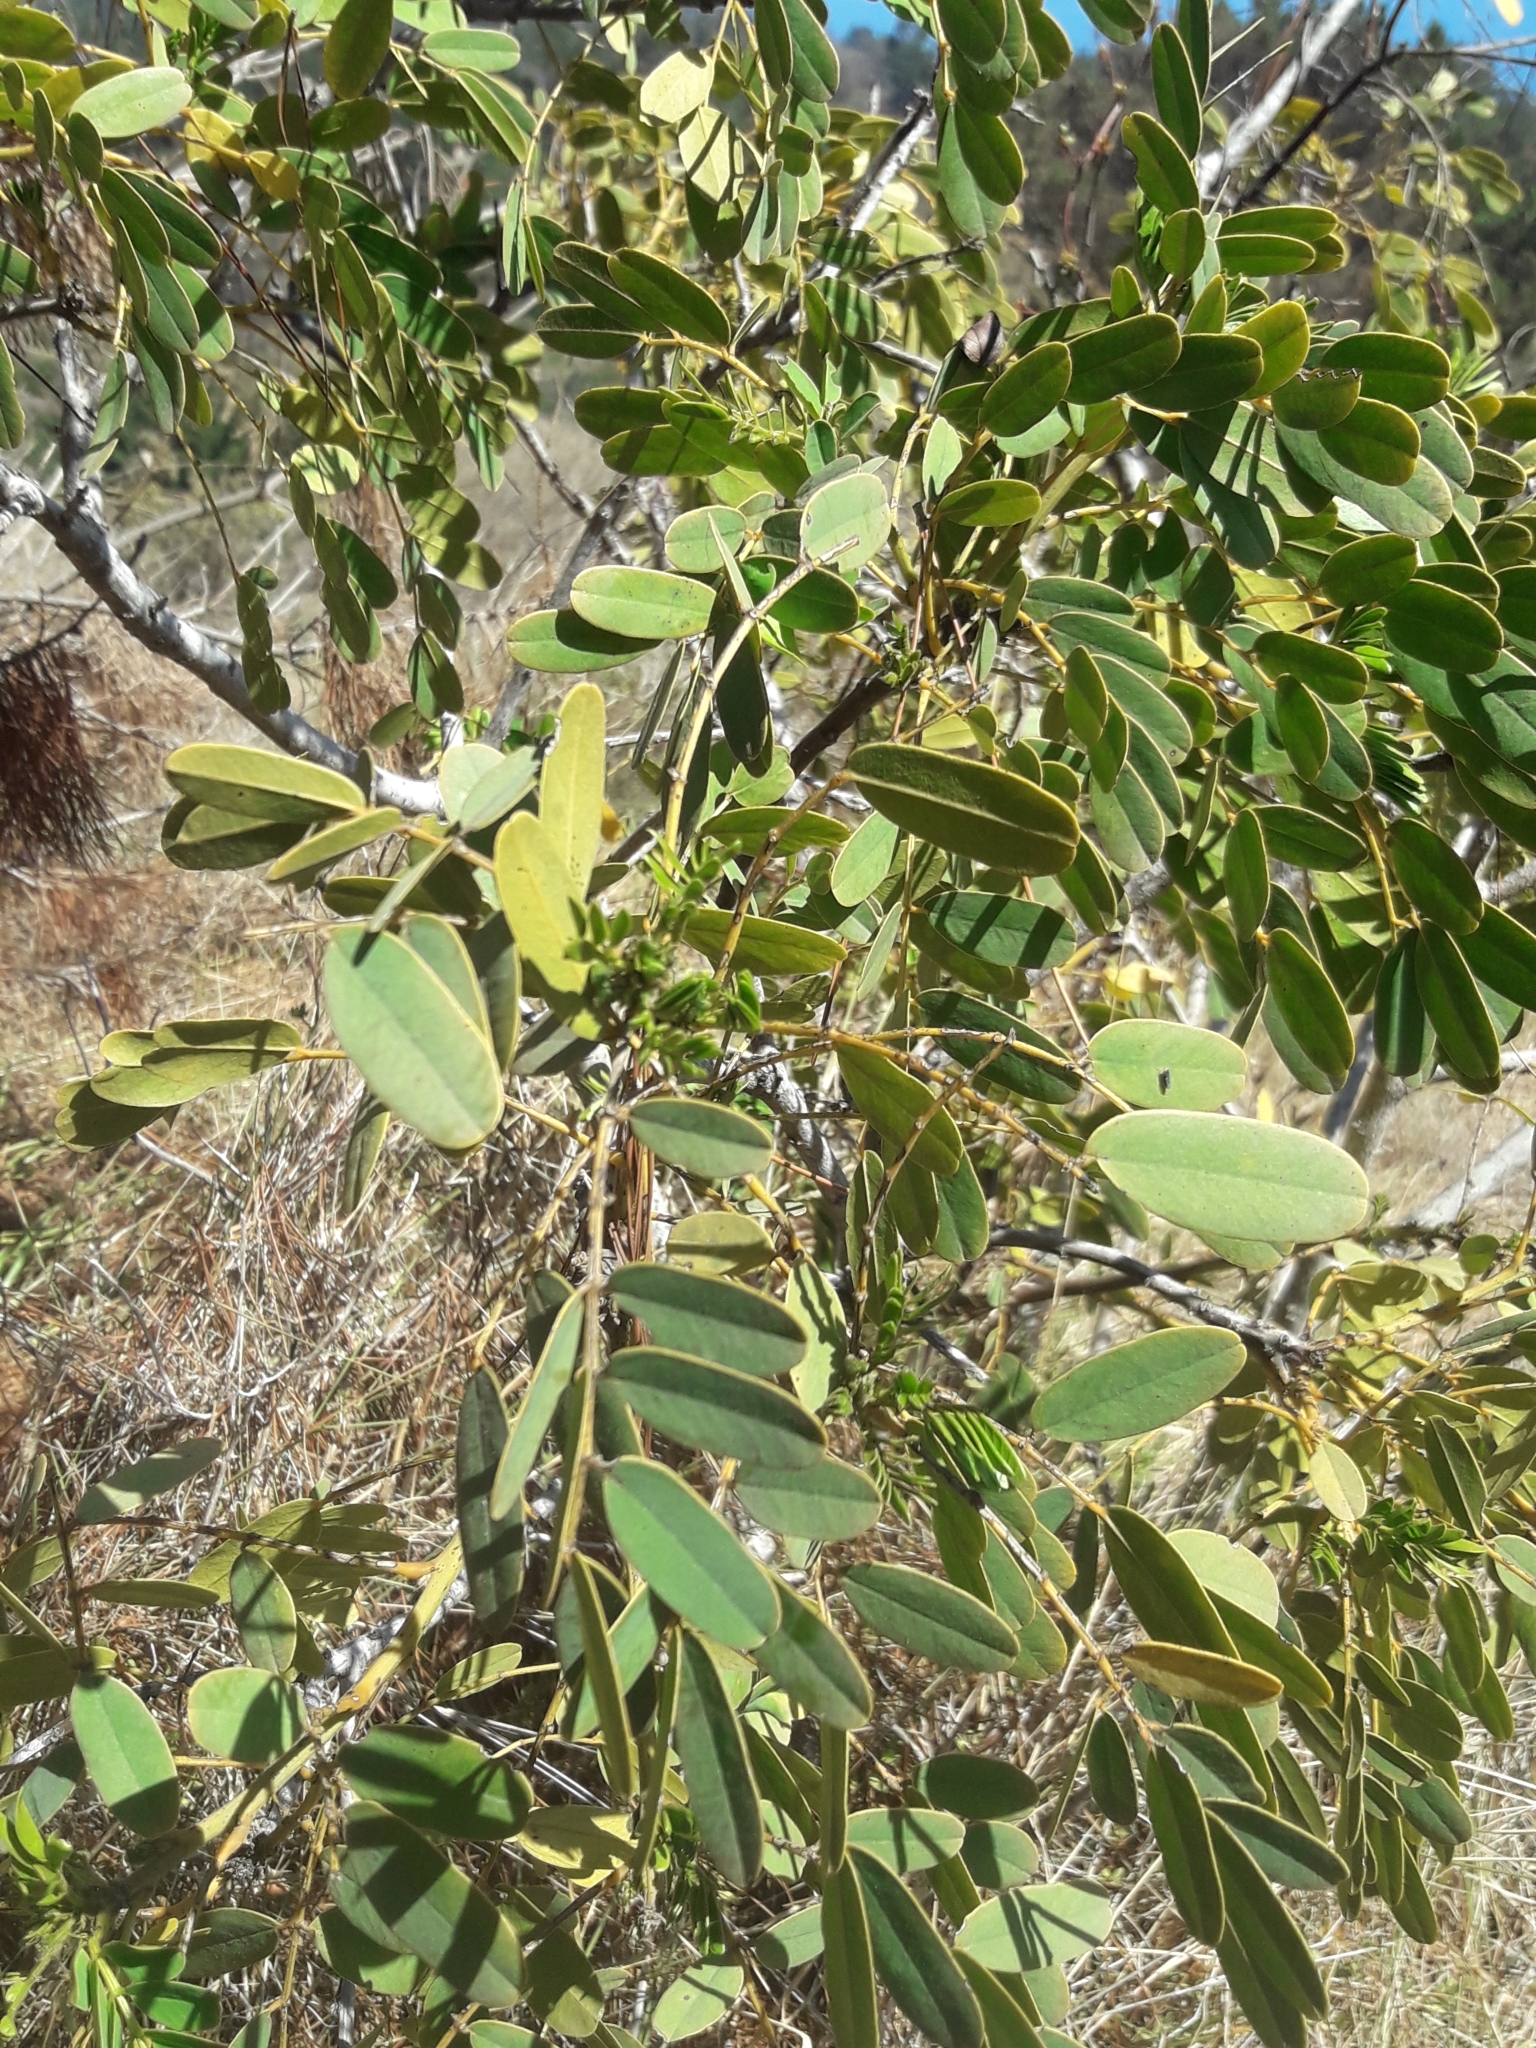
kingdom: Plantae
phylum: Tracheophyta
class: Magnoliopsida
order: Fabales
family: Fabaceae
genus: Senna
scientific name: Senna candolleana
